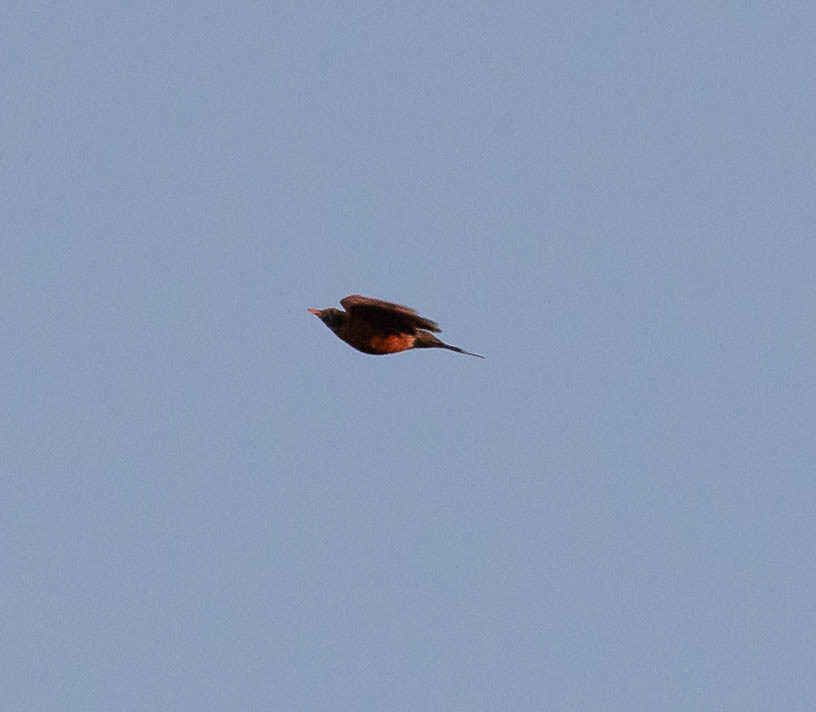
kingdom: Animalia
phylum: Chordata
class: Aves
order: Passeriformes
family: Turdidae
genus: Turdus
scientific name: Turdus migratorius
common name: American robin
